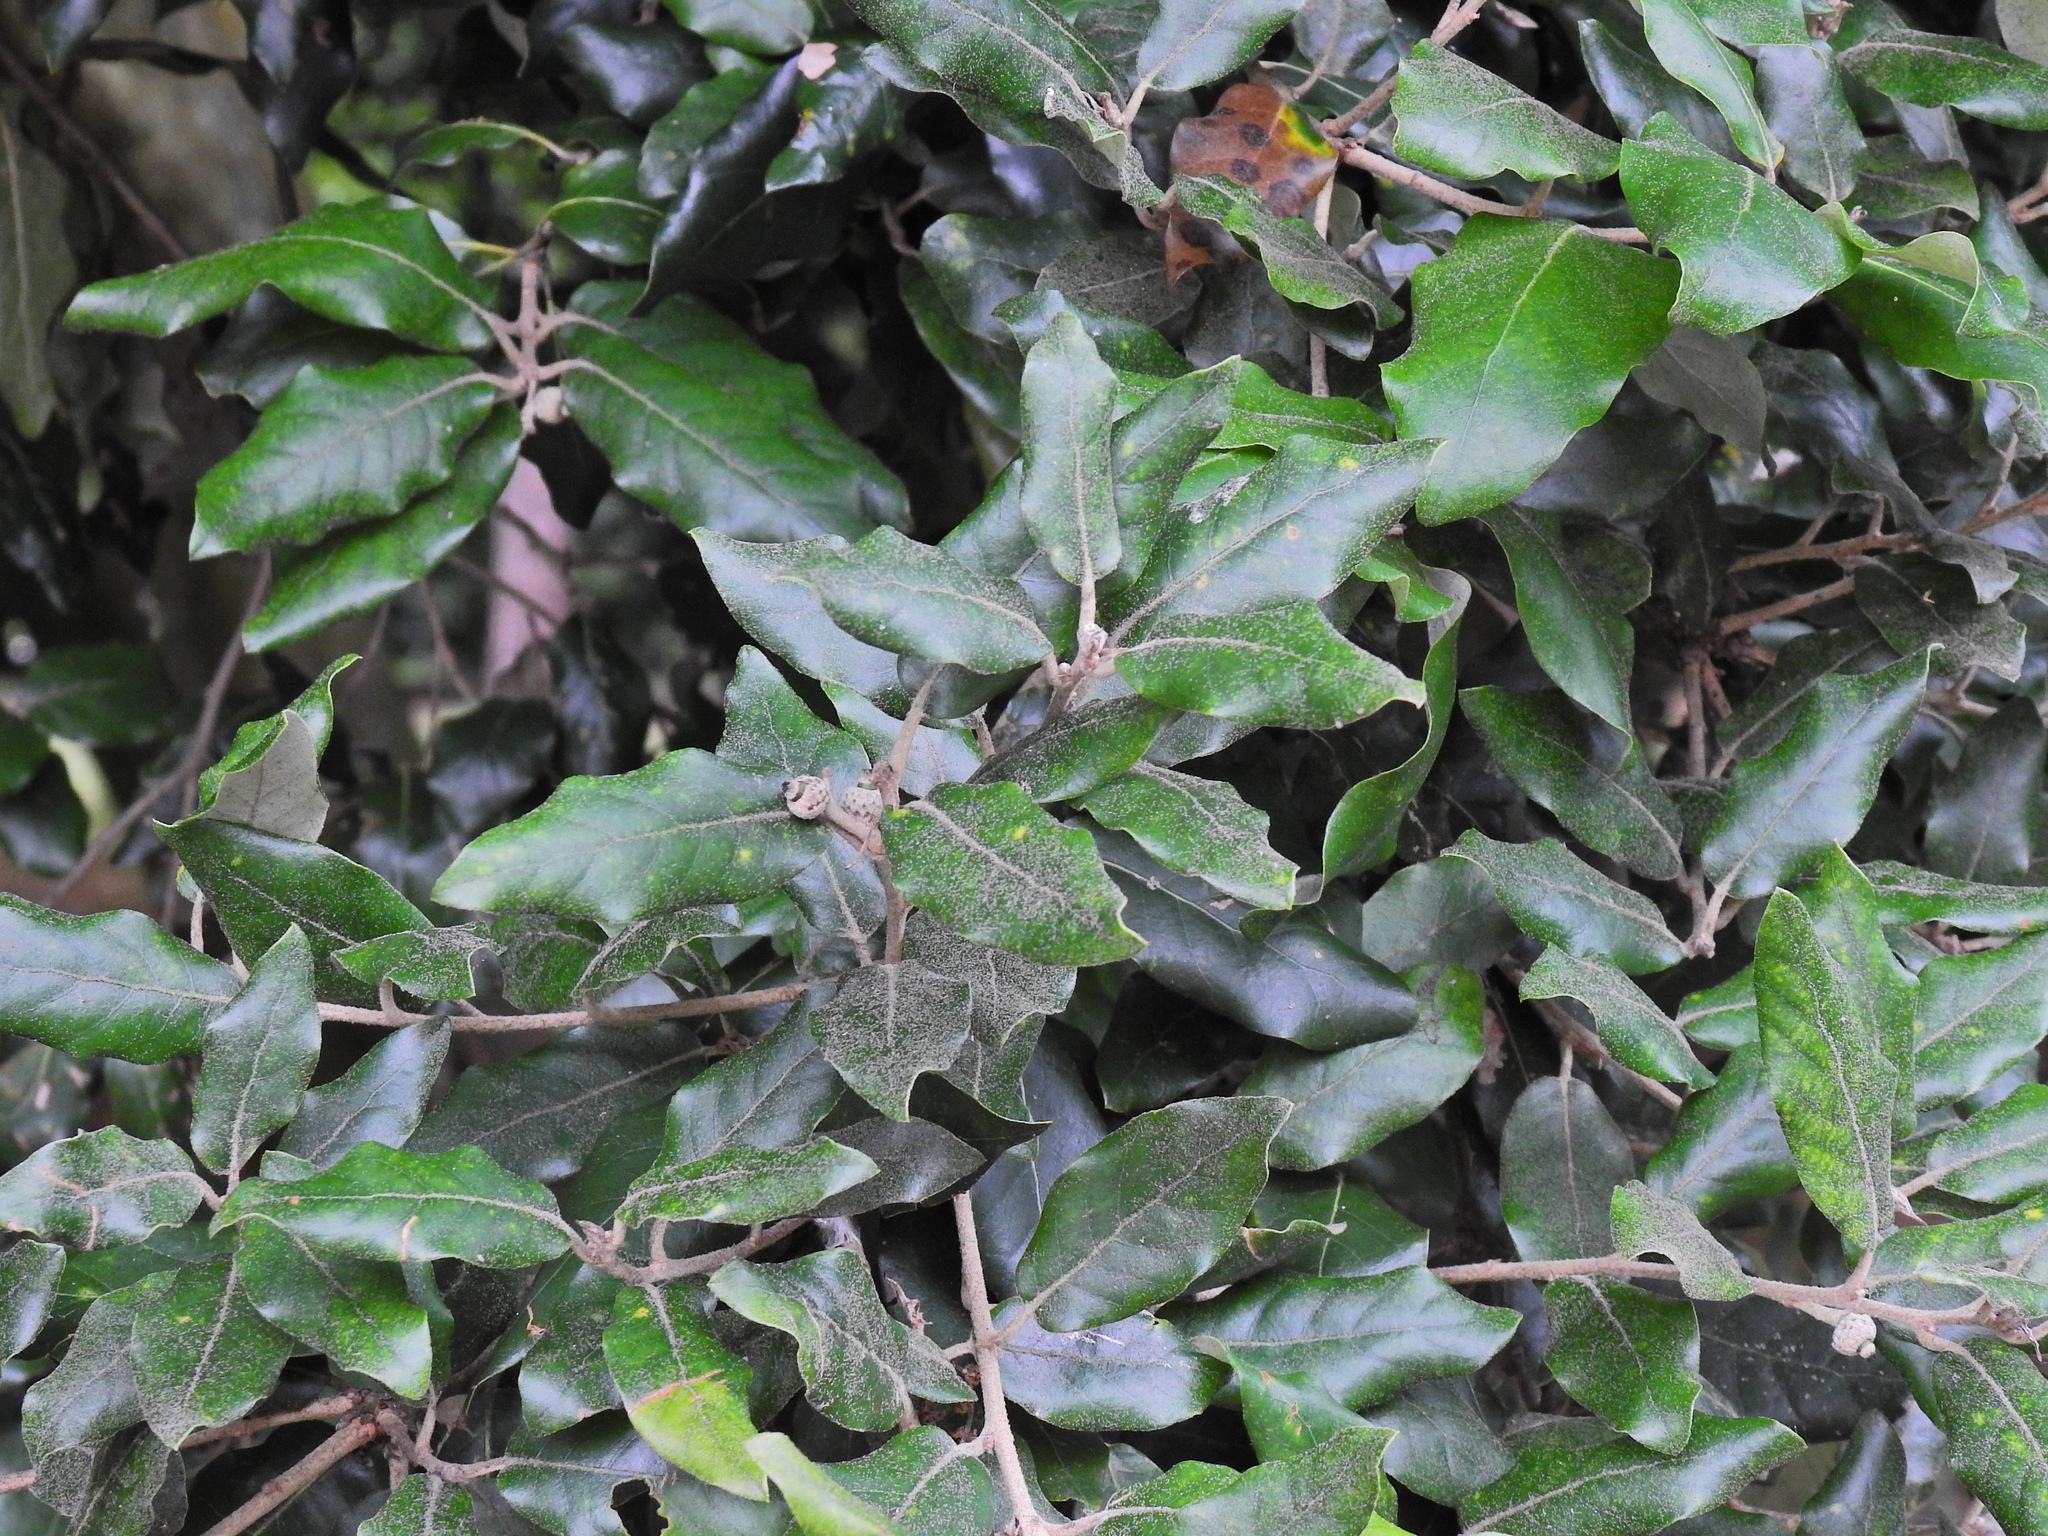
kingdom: Plantae
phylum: Tracheophyta
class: Magnoliopsida
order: Fagales
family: Fagaceae
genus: Quercus
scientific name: Quercus ilex
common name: Evergreen oak
